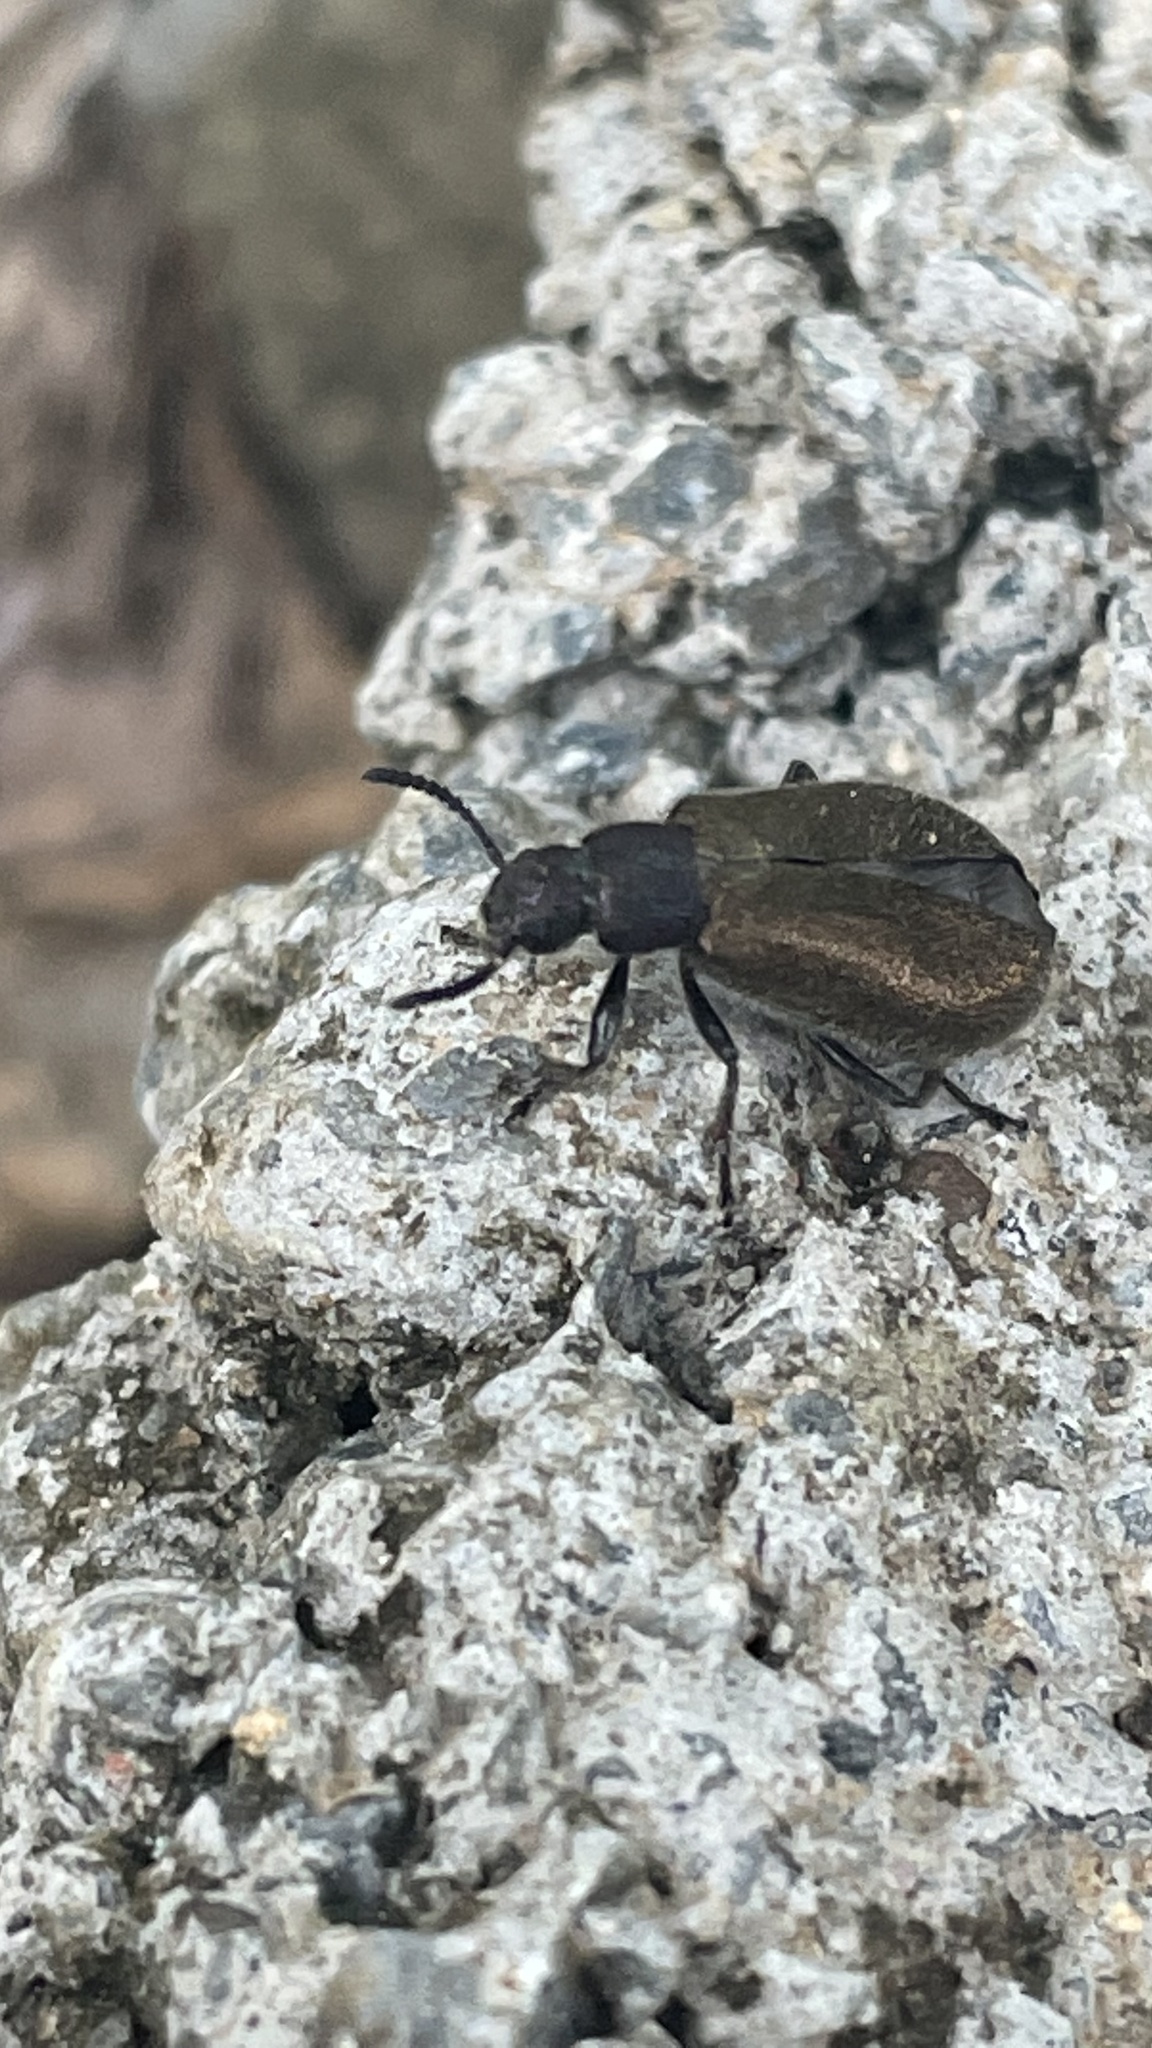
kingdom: Animalia
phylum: Arthropoda
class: Insecta
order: Coleoptera
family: Tenebrionidae
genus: Lagria
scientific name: Lagria villosa
